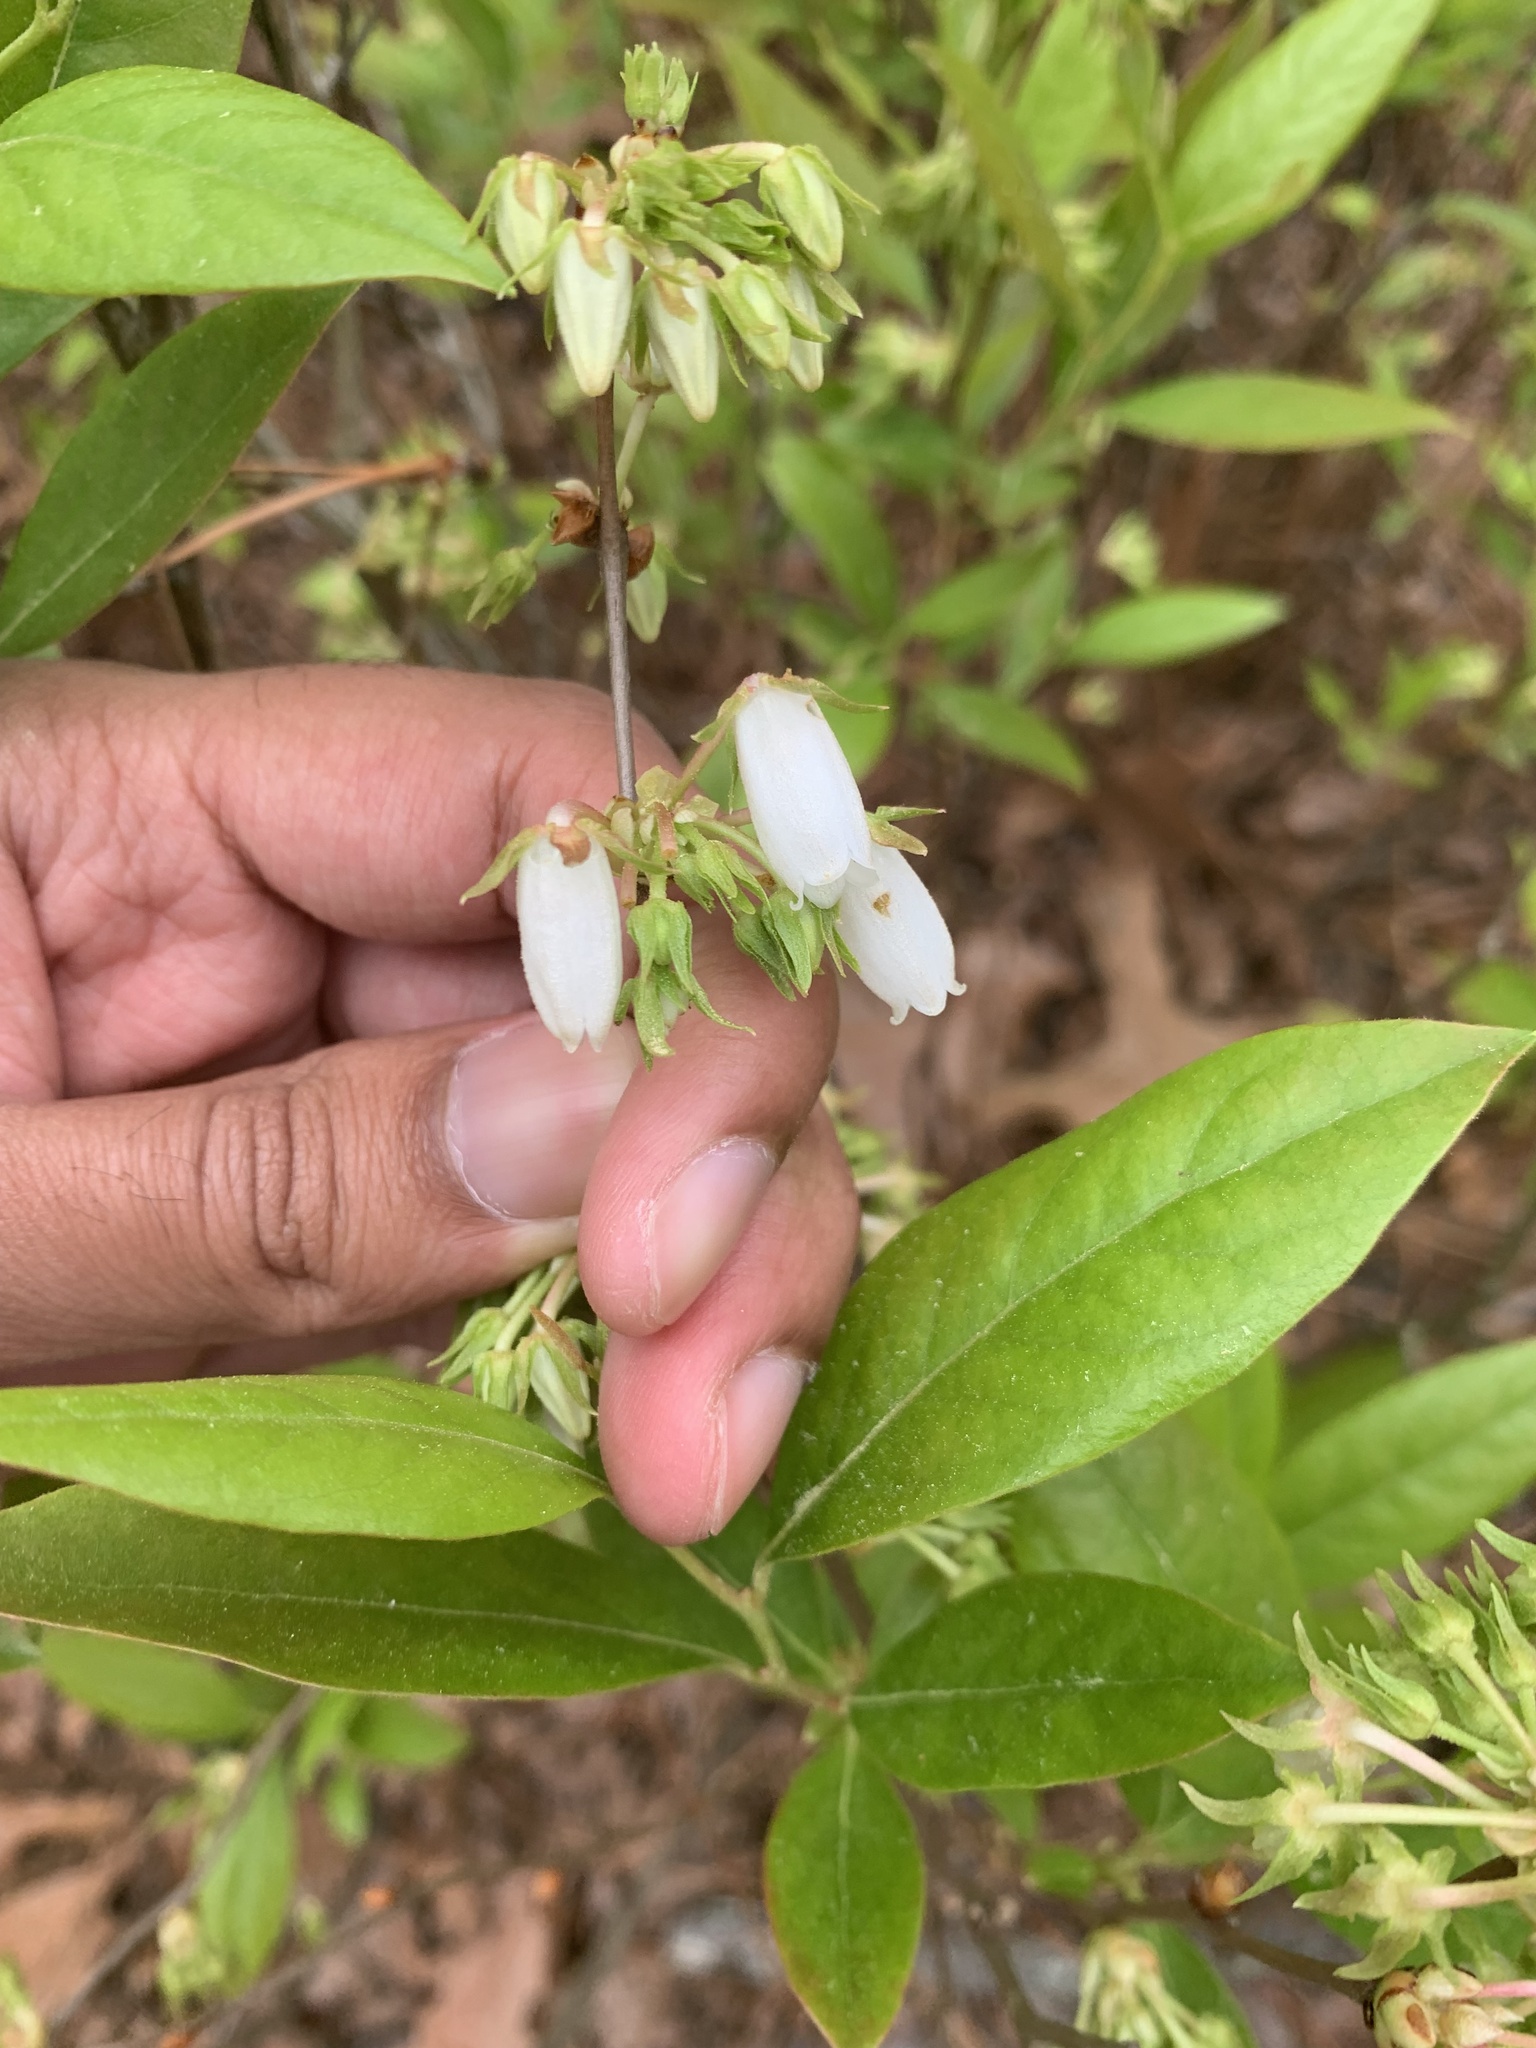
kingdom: Plantae
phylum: Tracheophyta
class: Magnoliopsida
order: Ericales
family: Ericaceae
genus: Lyonia
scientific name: Lyonia mariana
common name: Staggerbush
